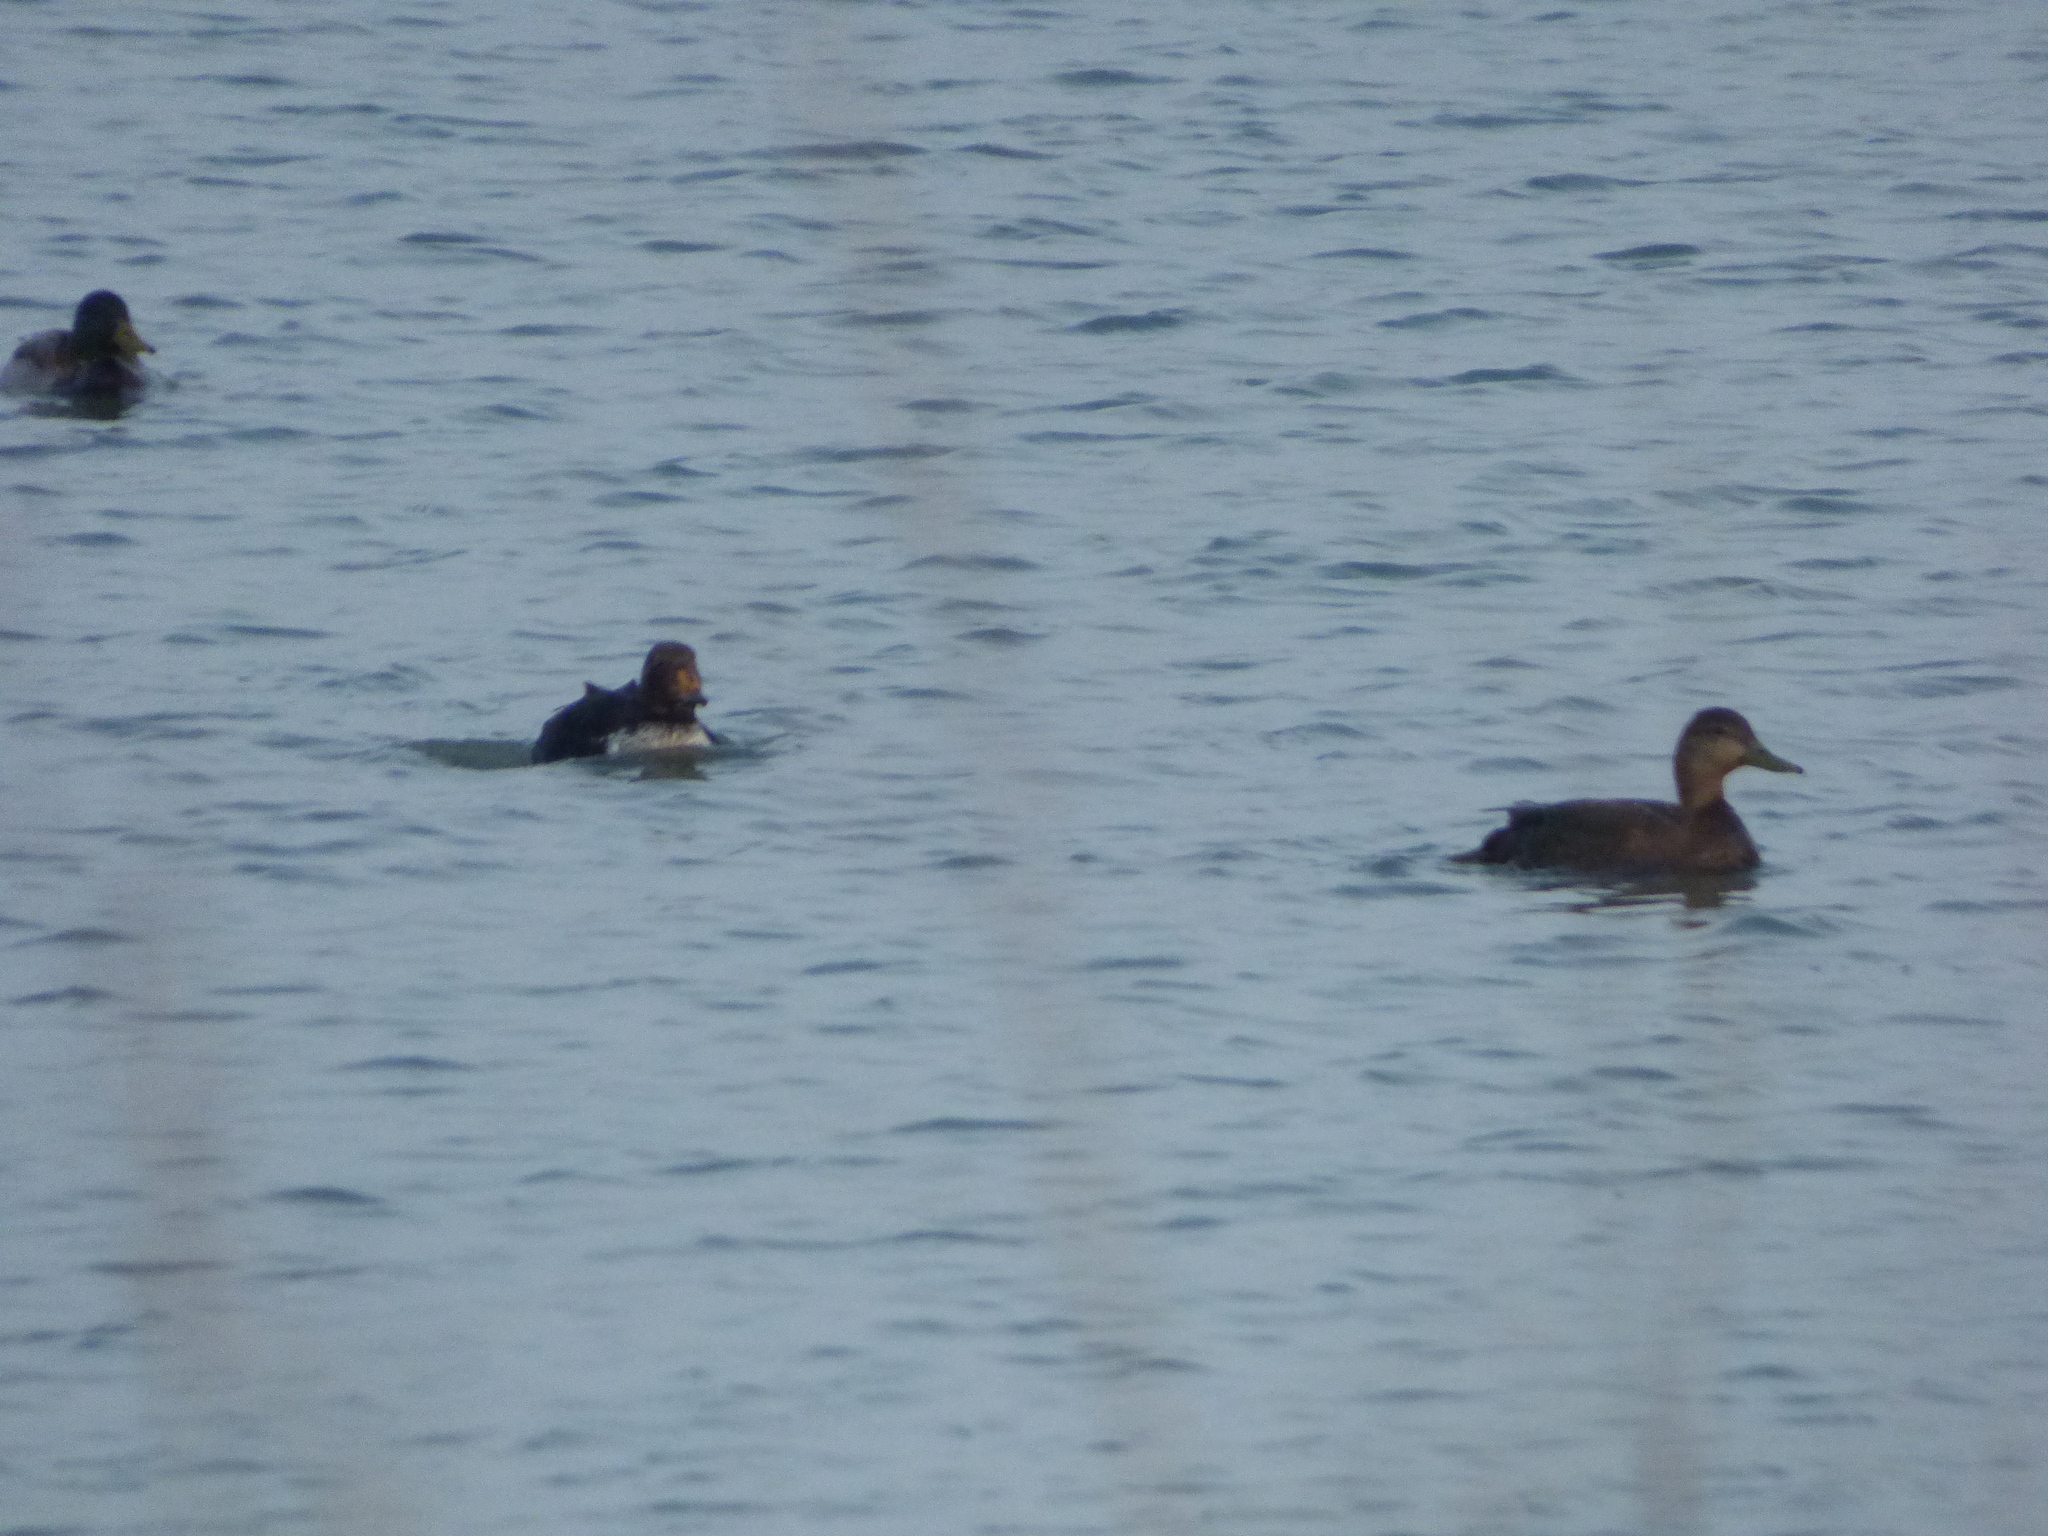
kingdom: Animalia
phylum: Chordata
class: Aves
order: Anseriformes
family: Anatidae
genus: Anas
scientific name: Anas rubripes
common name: American black duck
